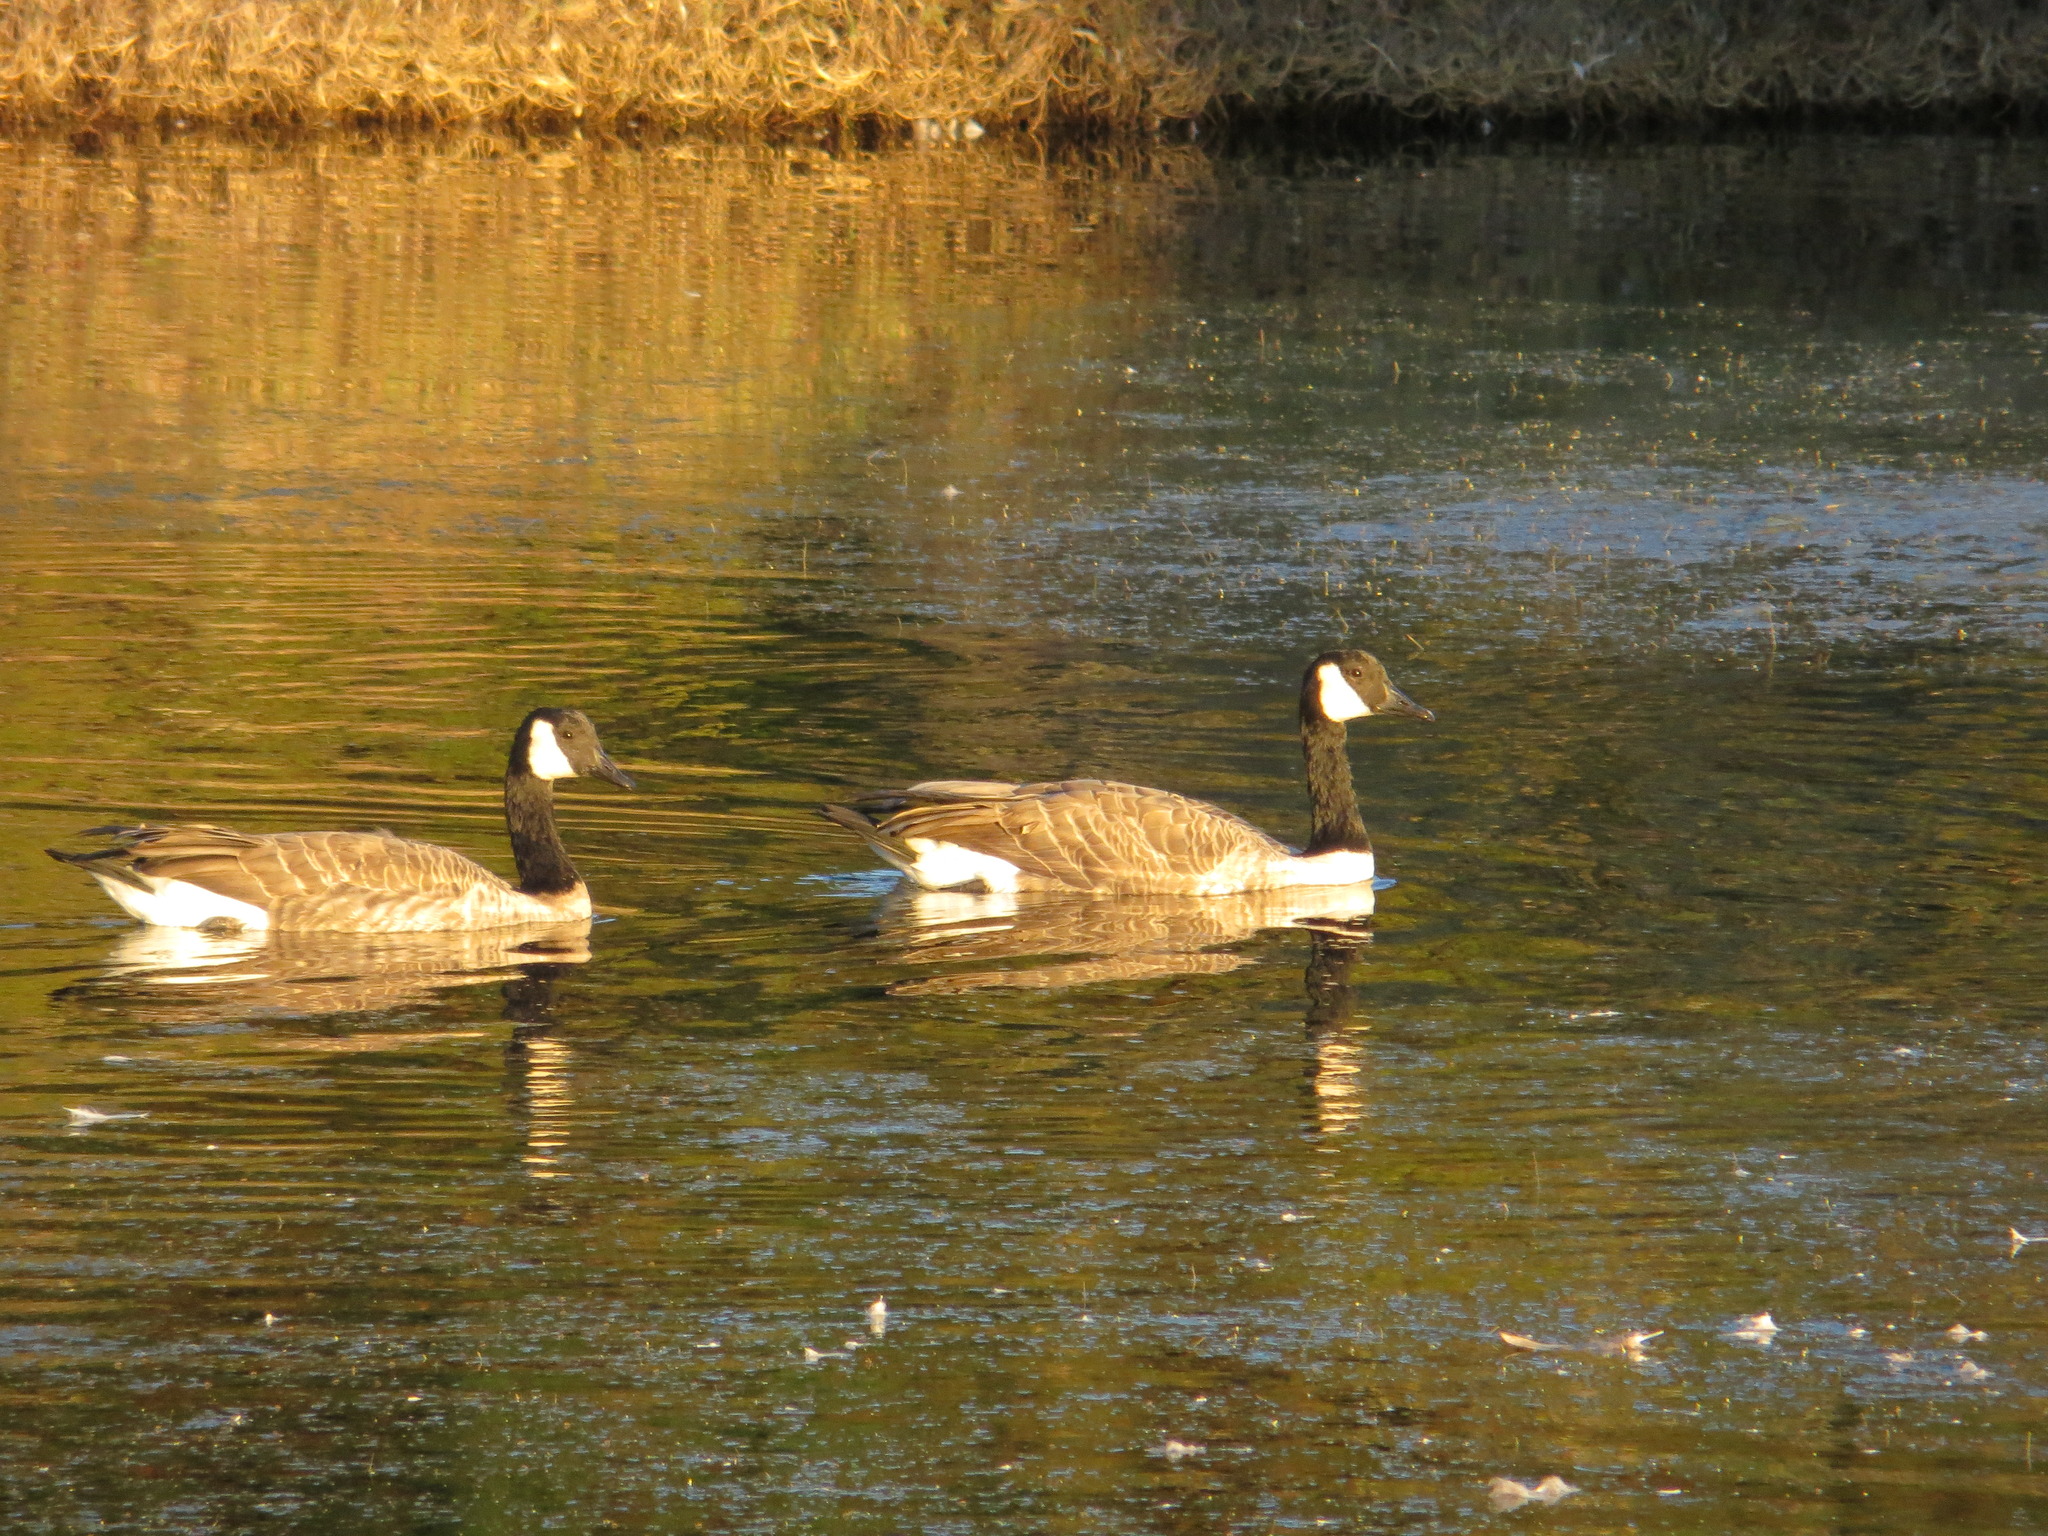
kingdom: Animalia
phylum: Chordata
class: Aves
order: Anseriformes
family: Anatidae
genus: Branta
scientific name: Branta canadensis
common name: Canada goose
